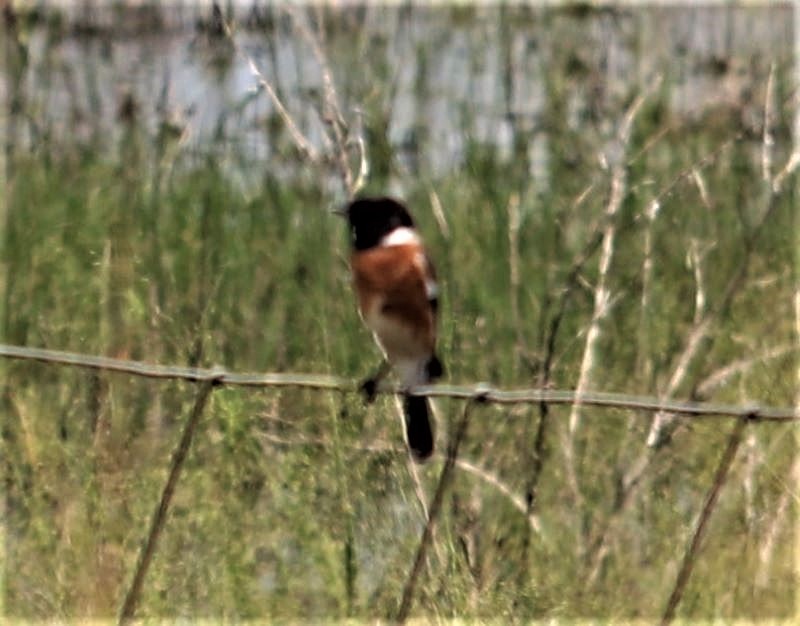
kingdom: Animalia
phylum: Chordata
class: Aves
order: Passeriformes
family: Muscicapidae
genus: Saxicola
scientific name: Saxicola torquatus
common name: African stonechat
